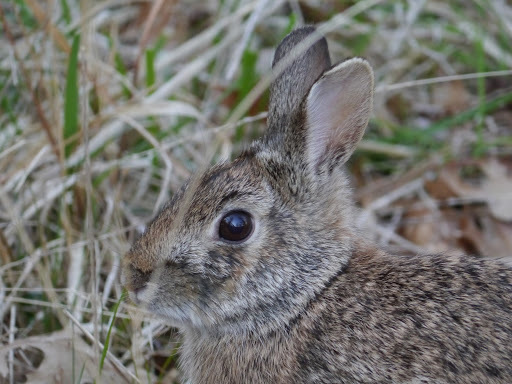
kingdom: Animalia
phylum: Chordata
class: Mammalia
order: Lagomorpha
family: Leporidae
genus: Sylvilagus
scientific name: Sylvilagus floridanus
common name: Eastern cottontail
